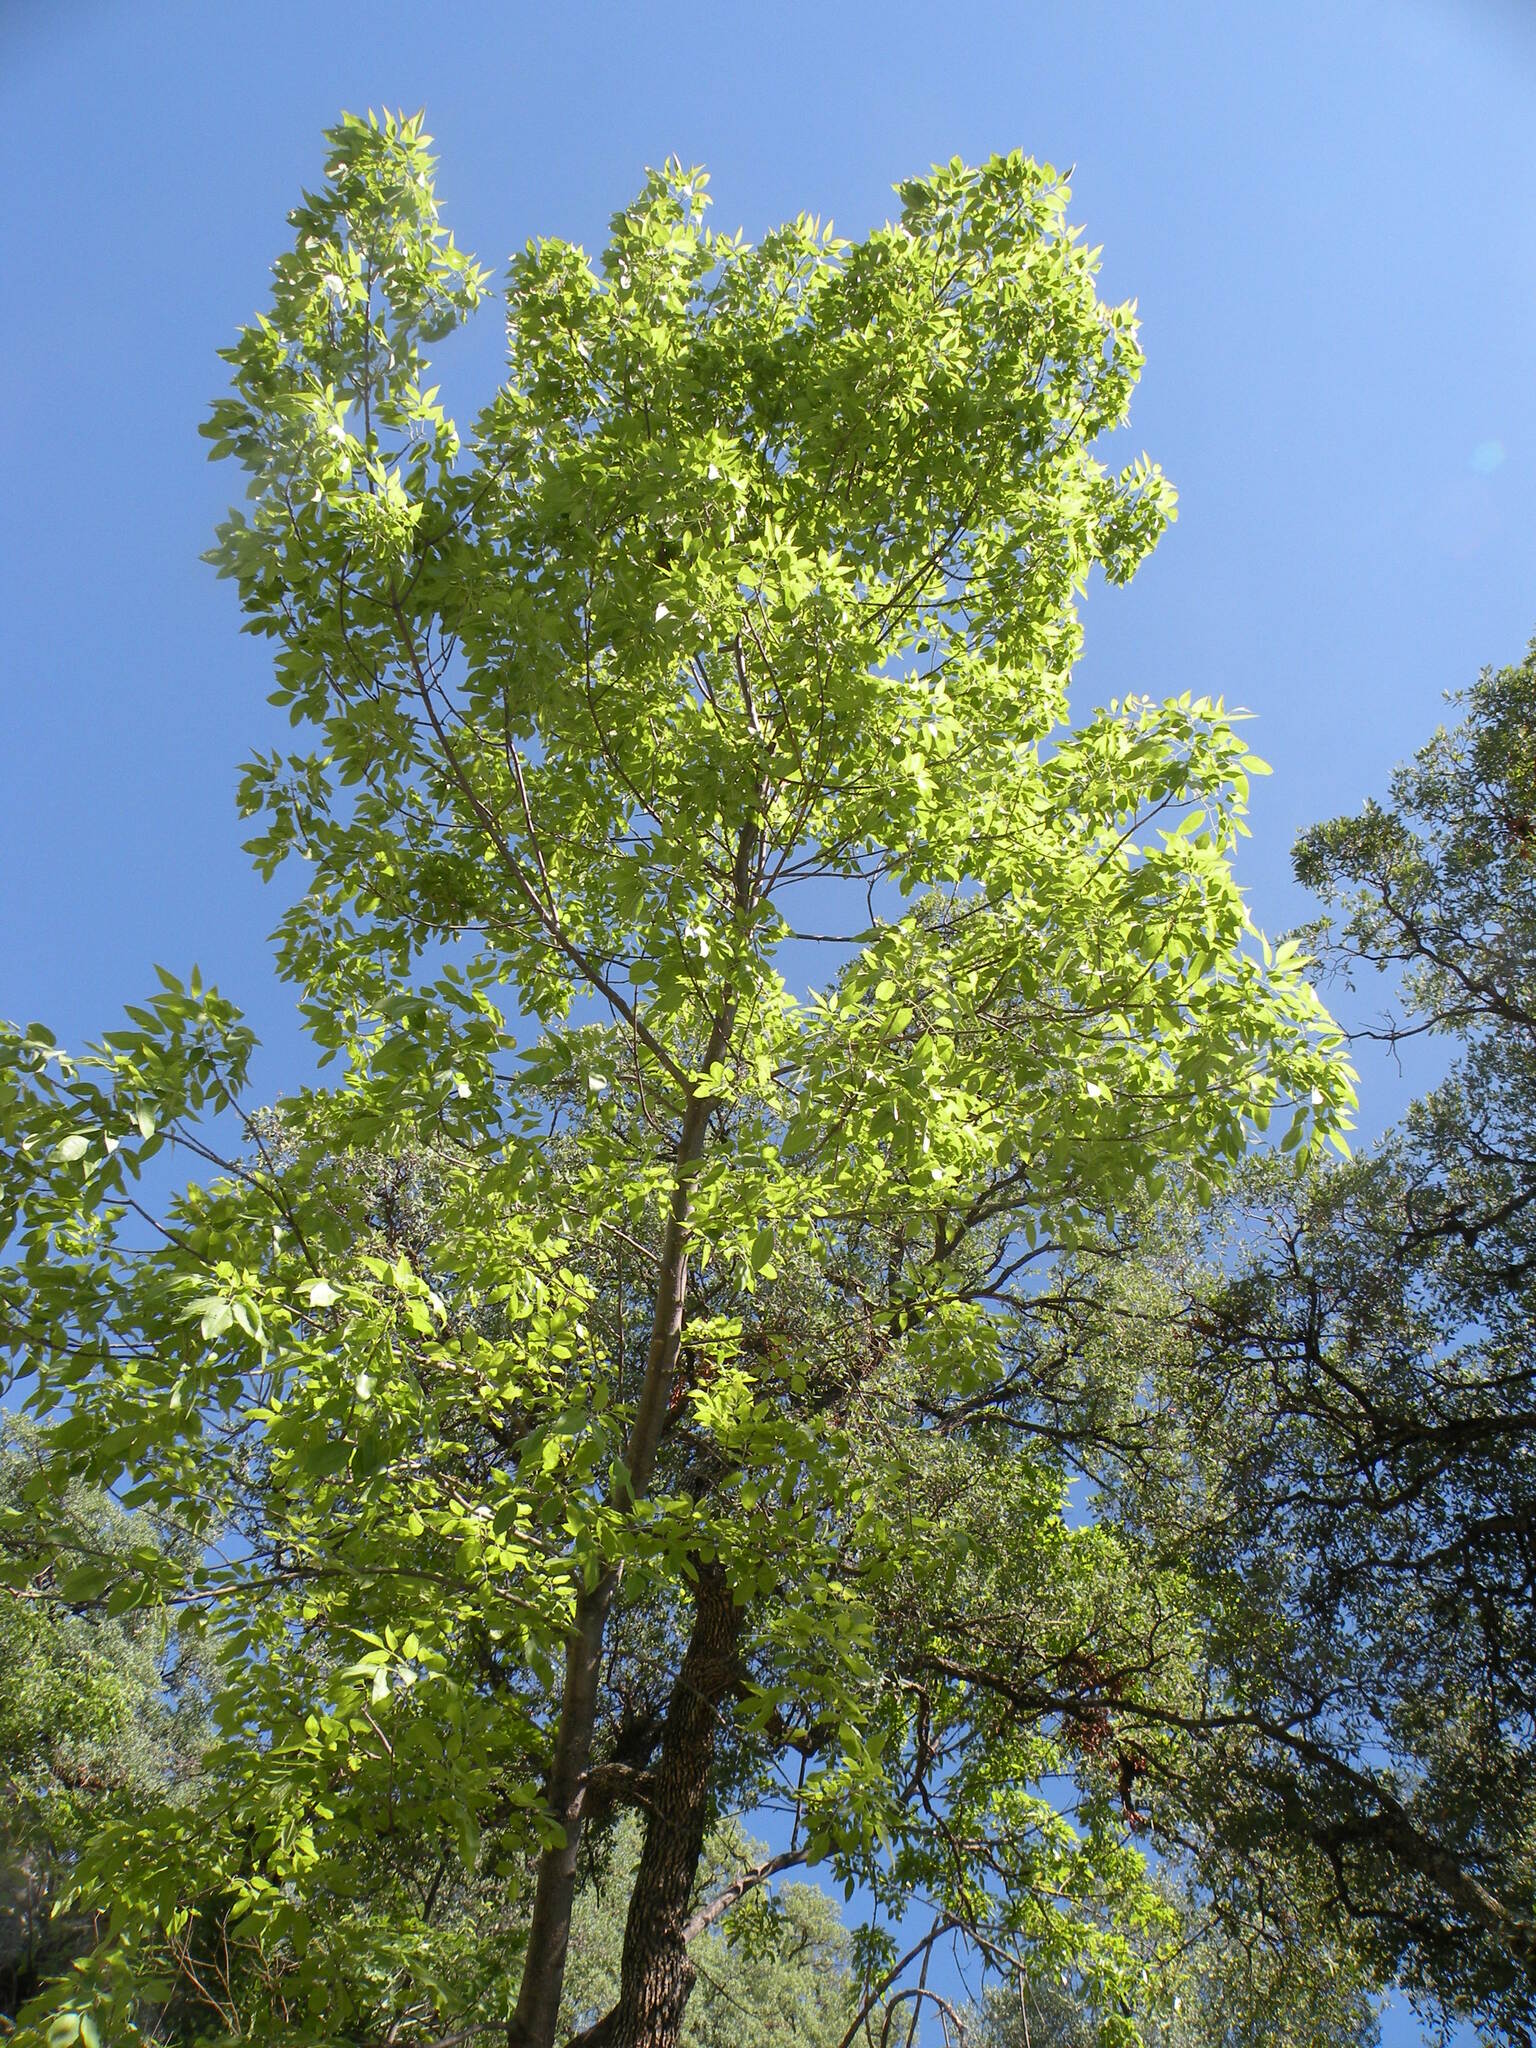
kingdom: Plantae
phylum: Tracheophyta
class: Magnoliopsida
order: Lamiales
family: Oleaceae
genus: Fraxinus
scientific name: Fraxinus papillosa
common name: Chihuahua ash
